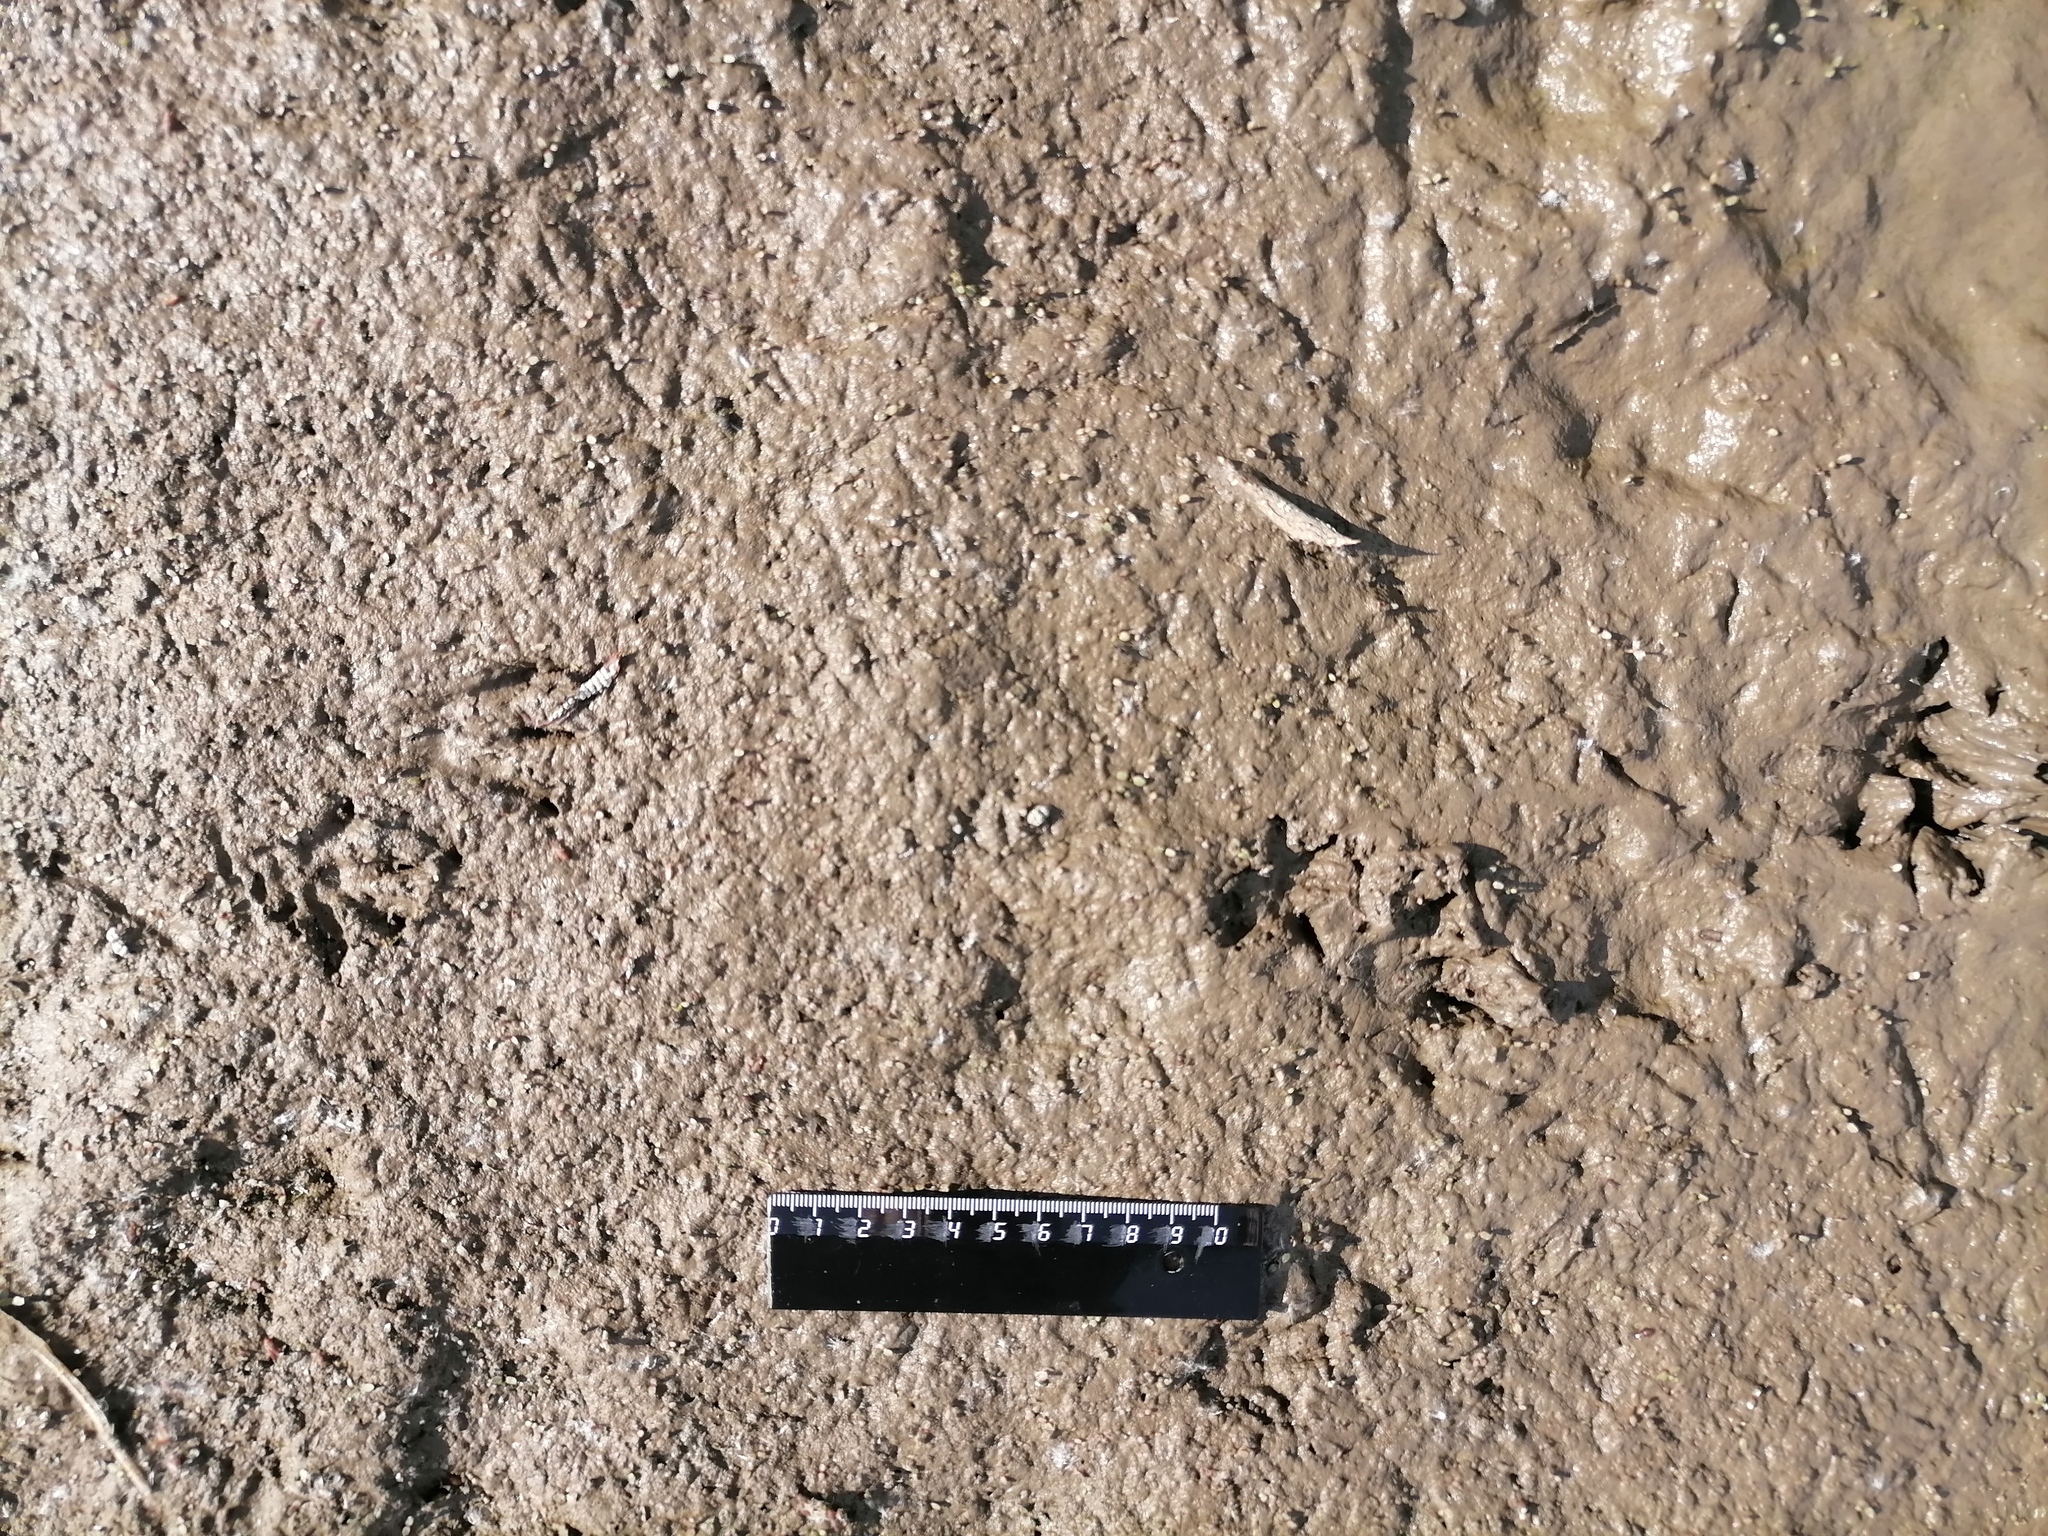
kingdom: Animalia
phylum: Chordata
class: Mammalia
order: Rodentia
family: Cricetidae
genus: Ondatra
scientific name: Ondatra zibethicus
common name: Muskrat
